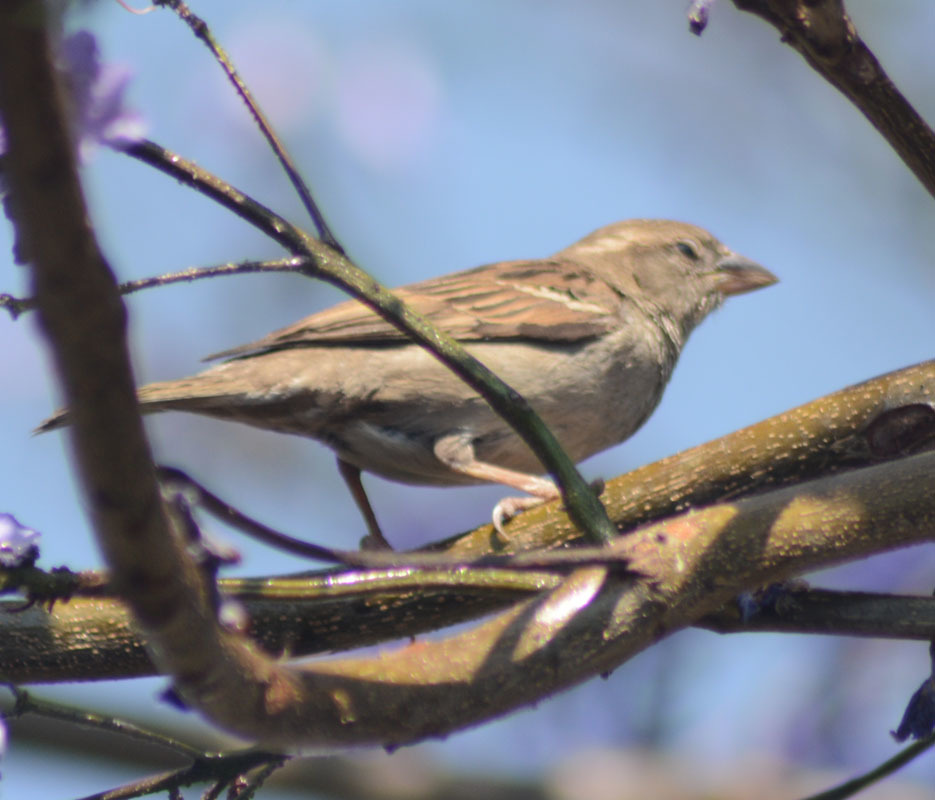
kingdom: Animalia
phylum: Chordata
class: Aves
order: Passeriformes
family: Passeridae
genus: Passer
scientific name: Passer domesticus
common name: House sparrow
